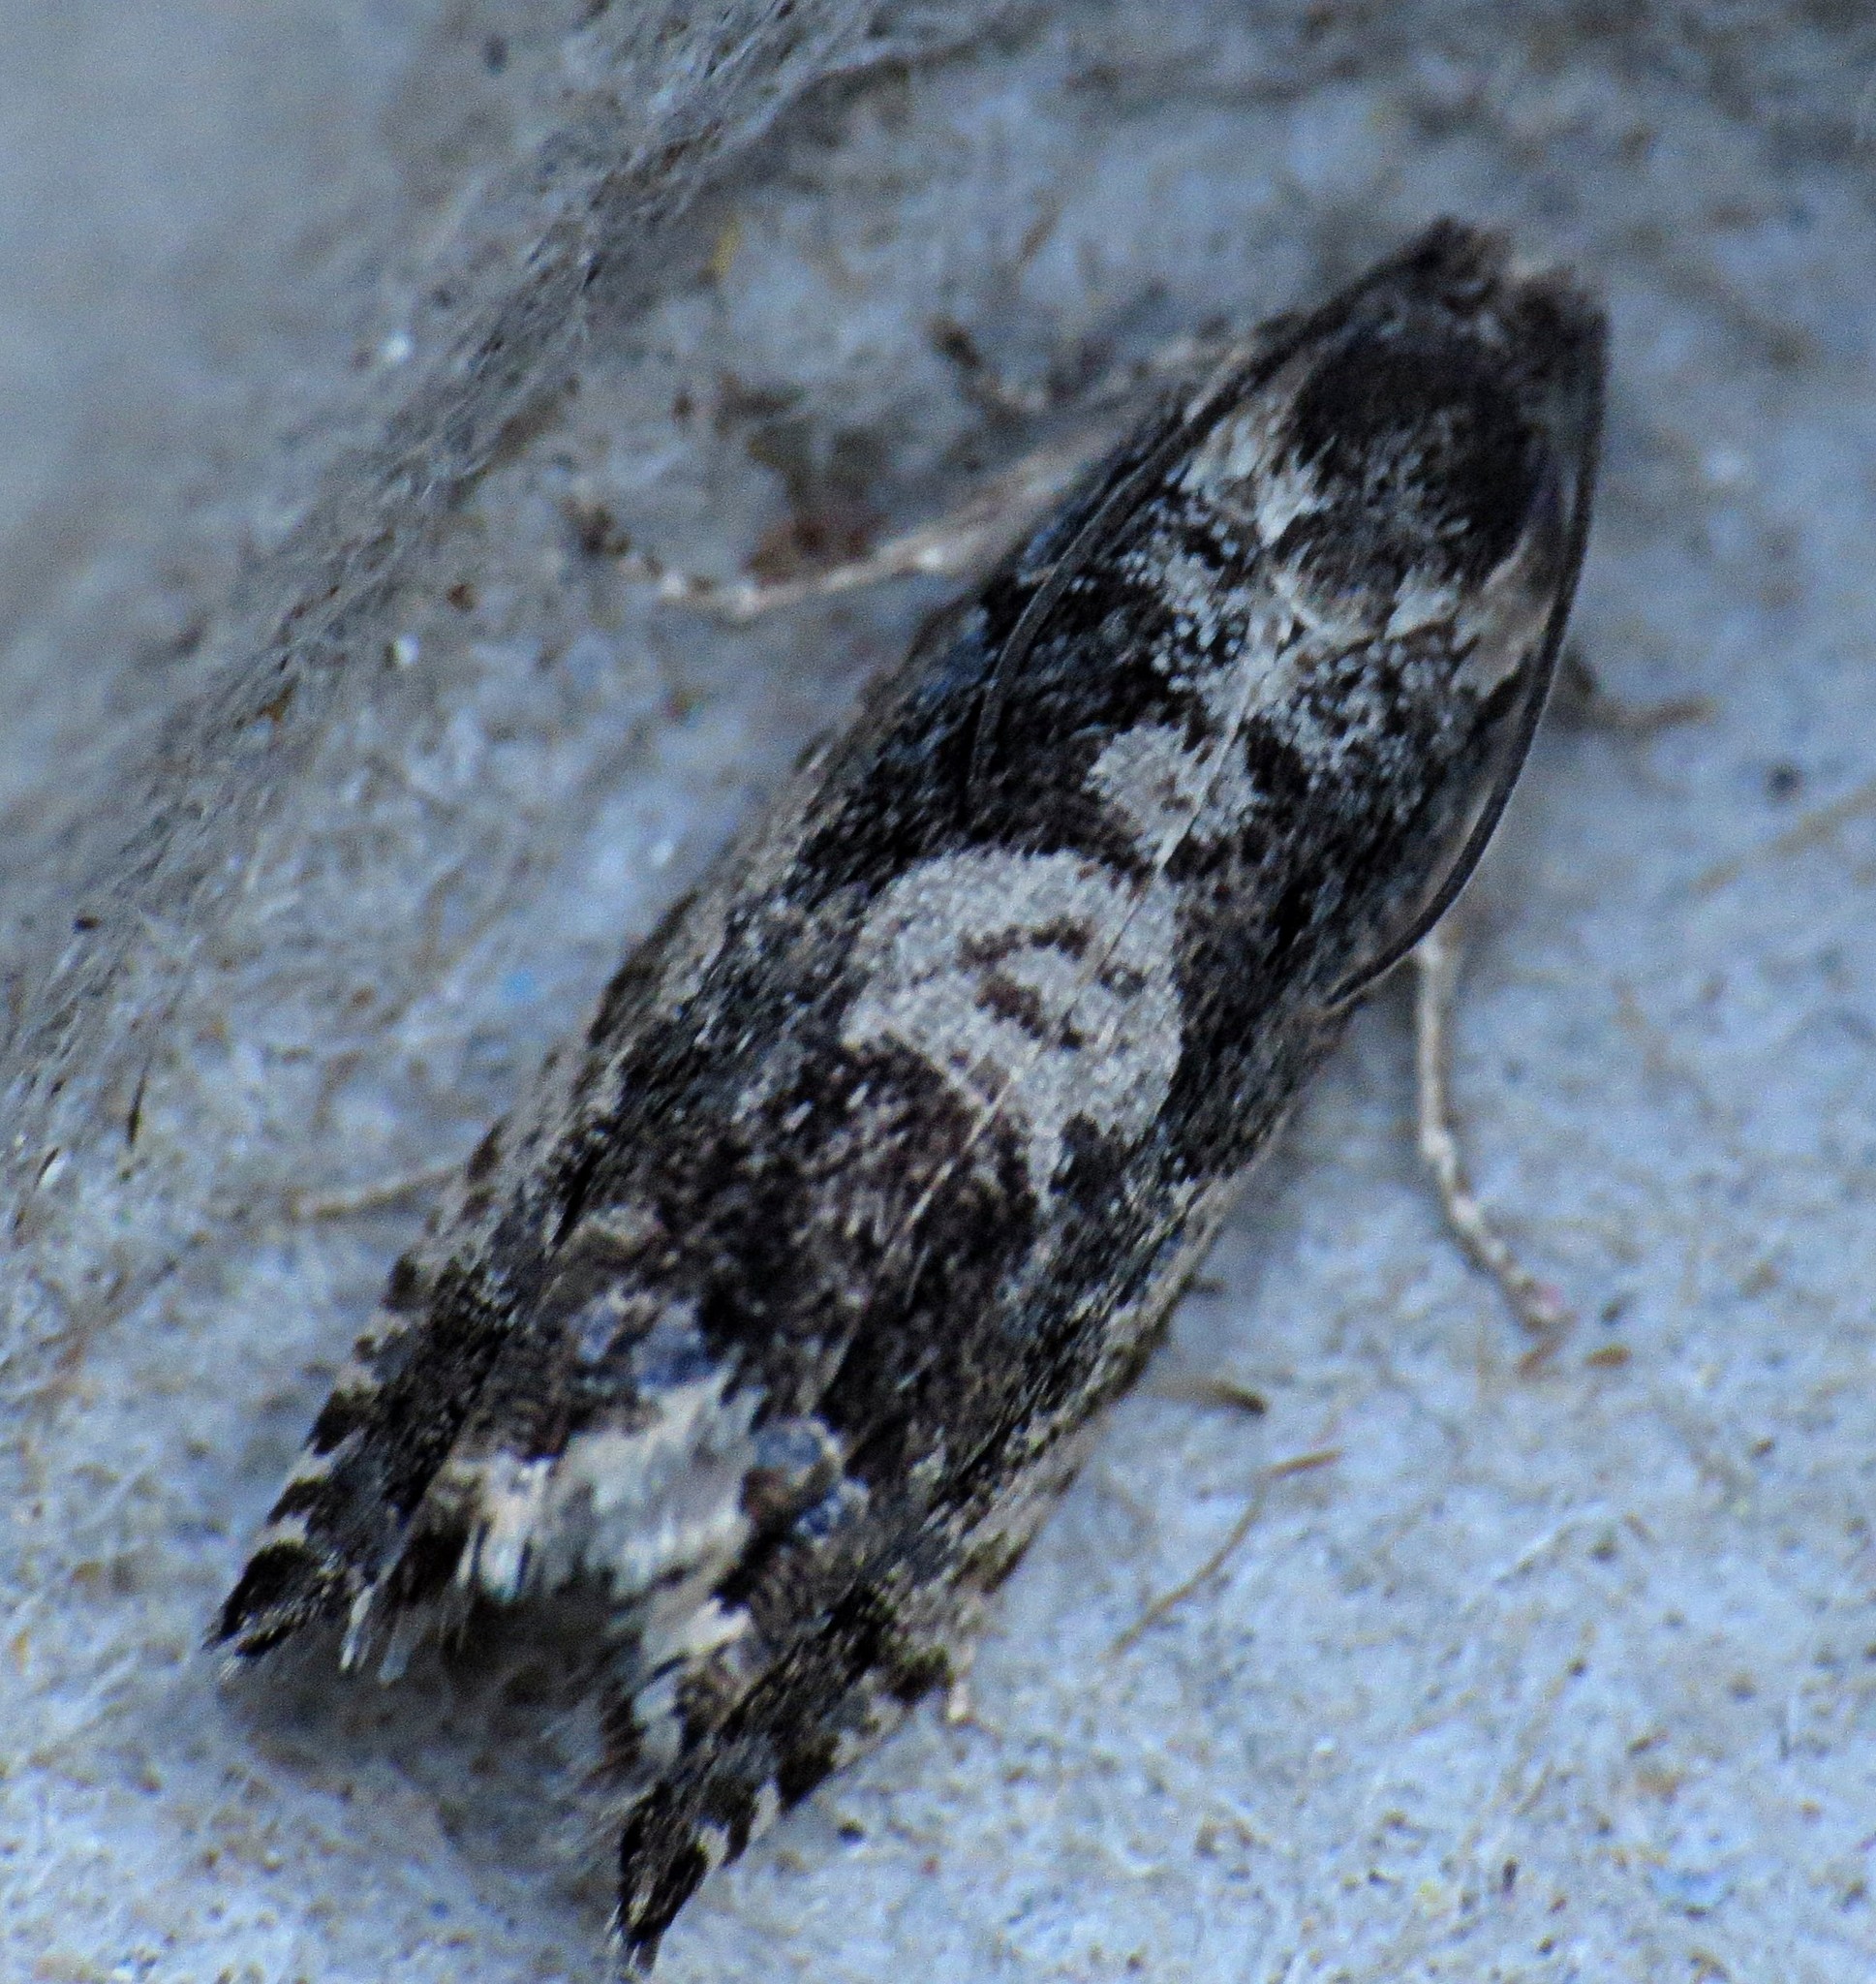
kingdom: Animalia
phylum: Arthropoda
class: Insecta
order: Lepidoptera
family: Tortricidae
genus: Cydia
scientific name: Cydia populana
